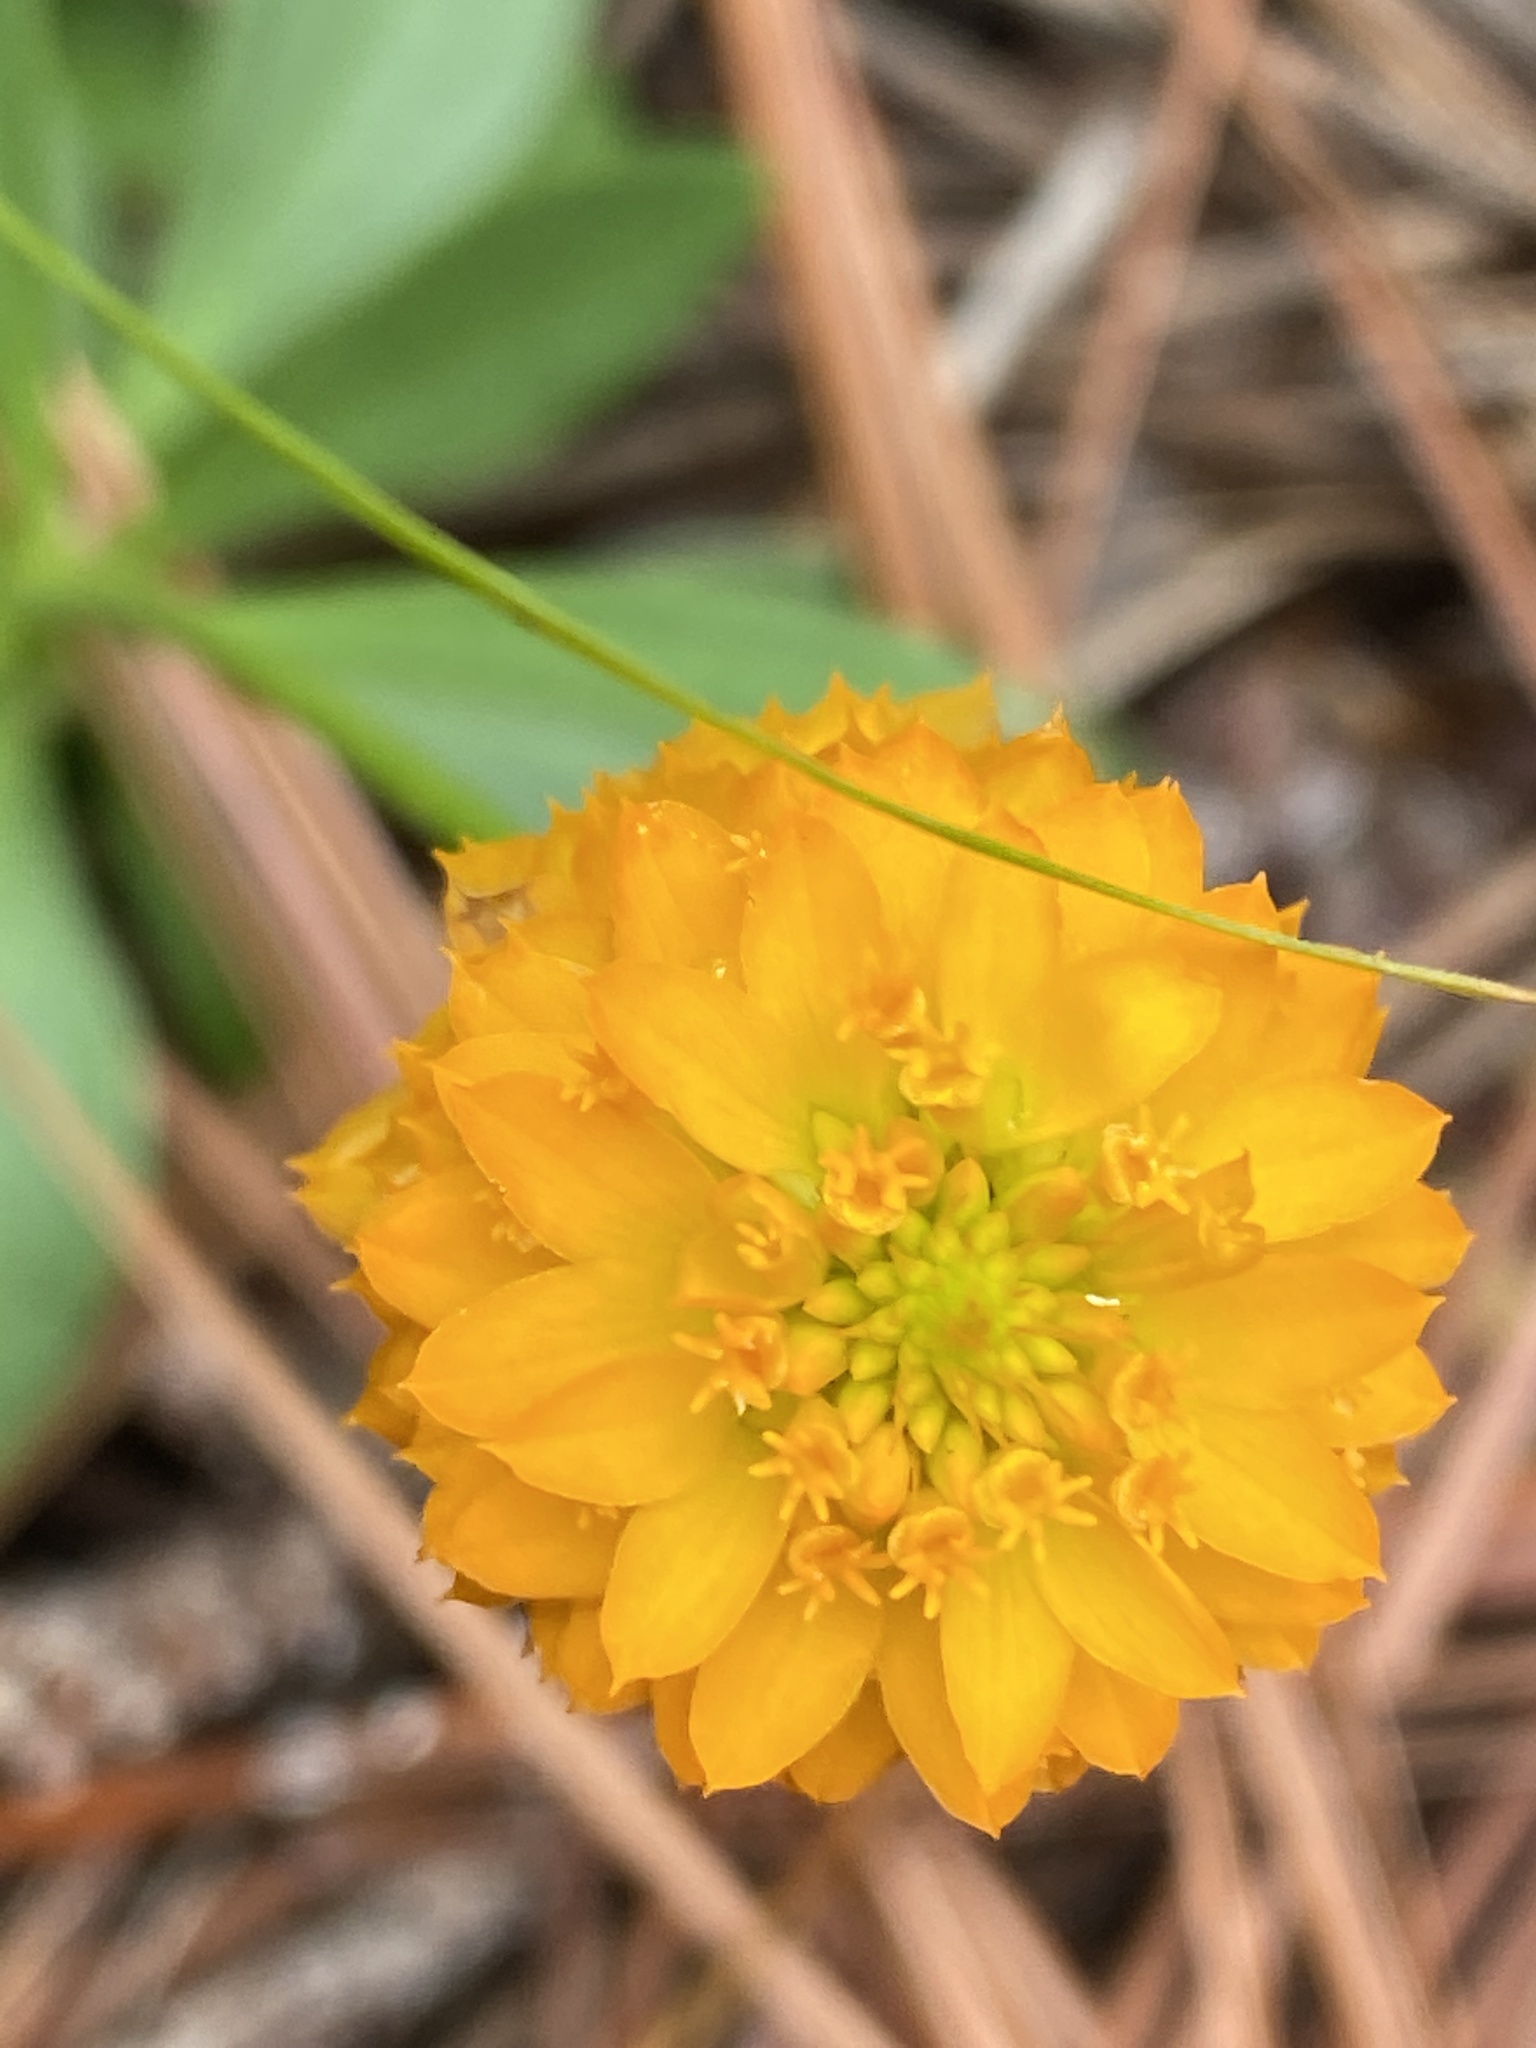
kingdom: Plantae
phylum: Tracheophyta
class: Magnoliopsida
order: Fabales
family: Polygalaceae
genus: Polygala
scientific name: Polygala lutea
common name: Orange milkwort
